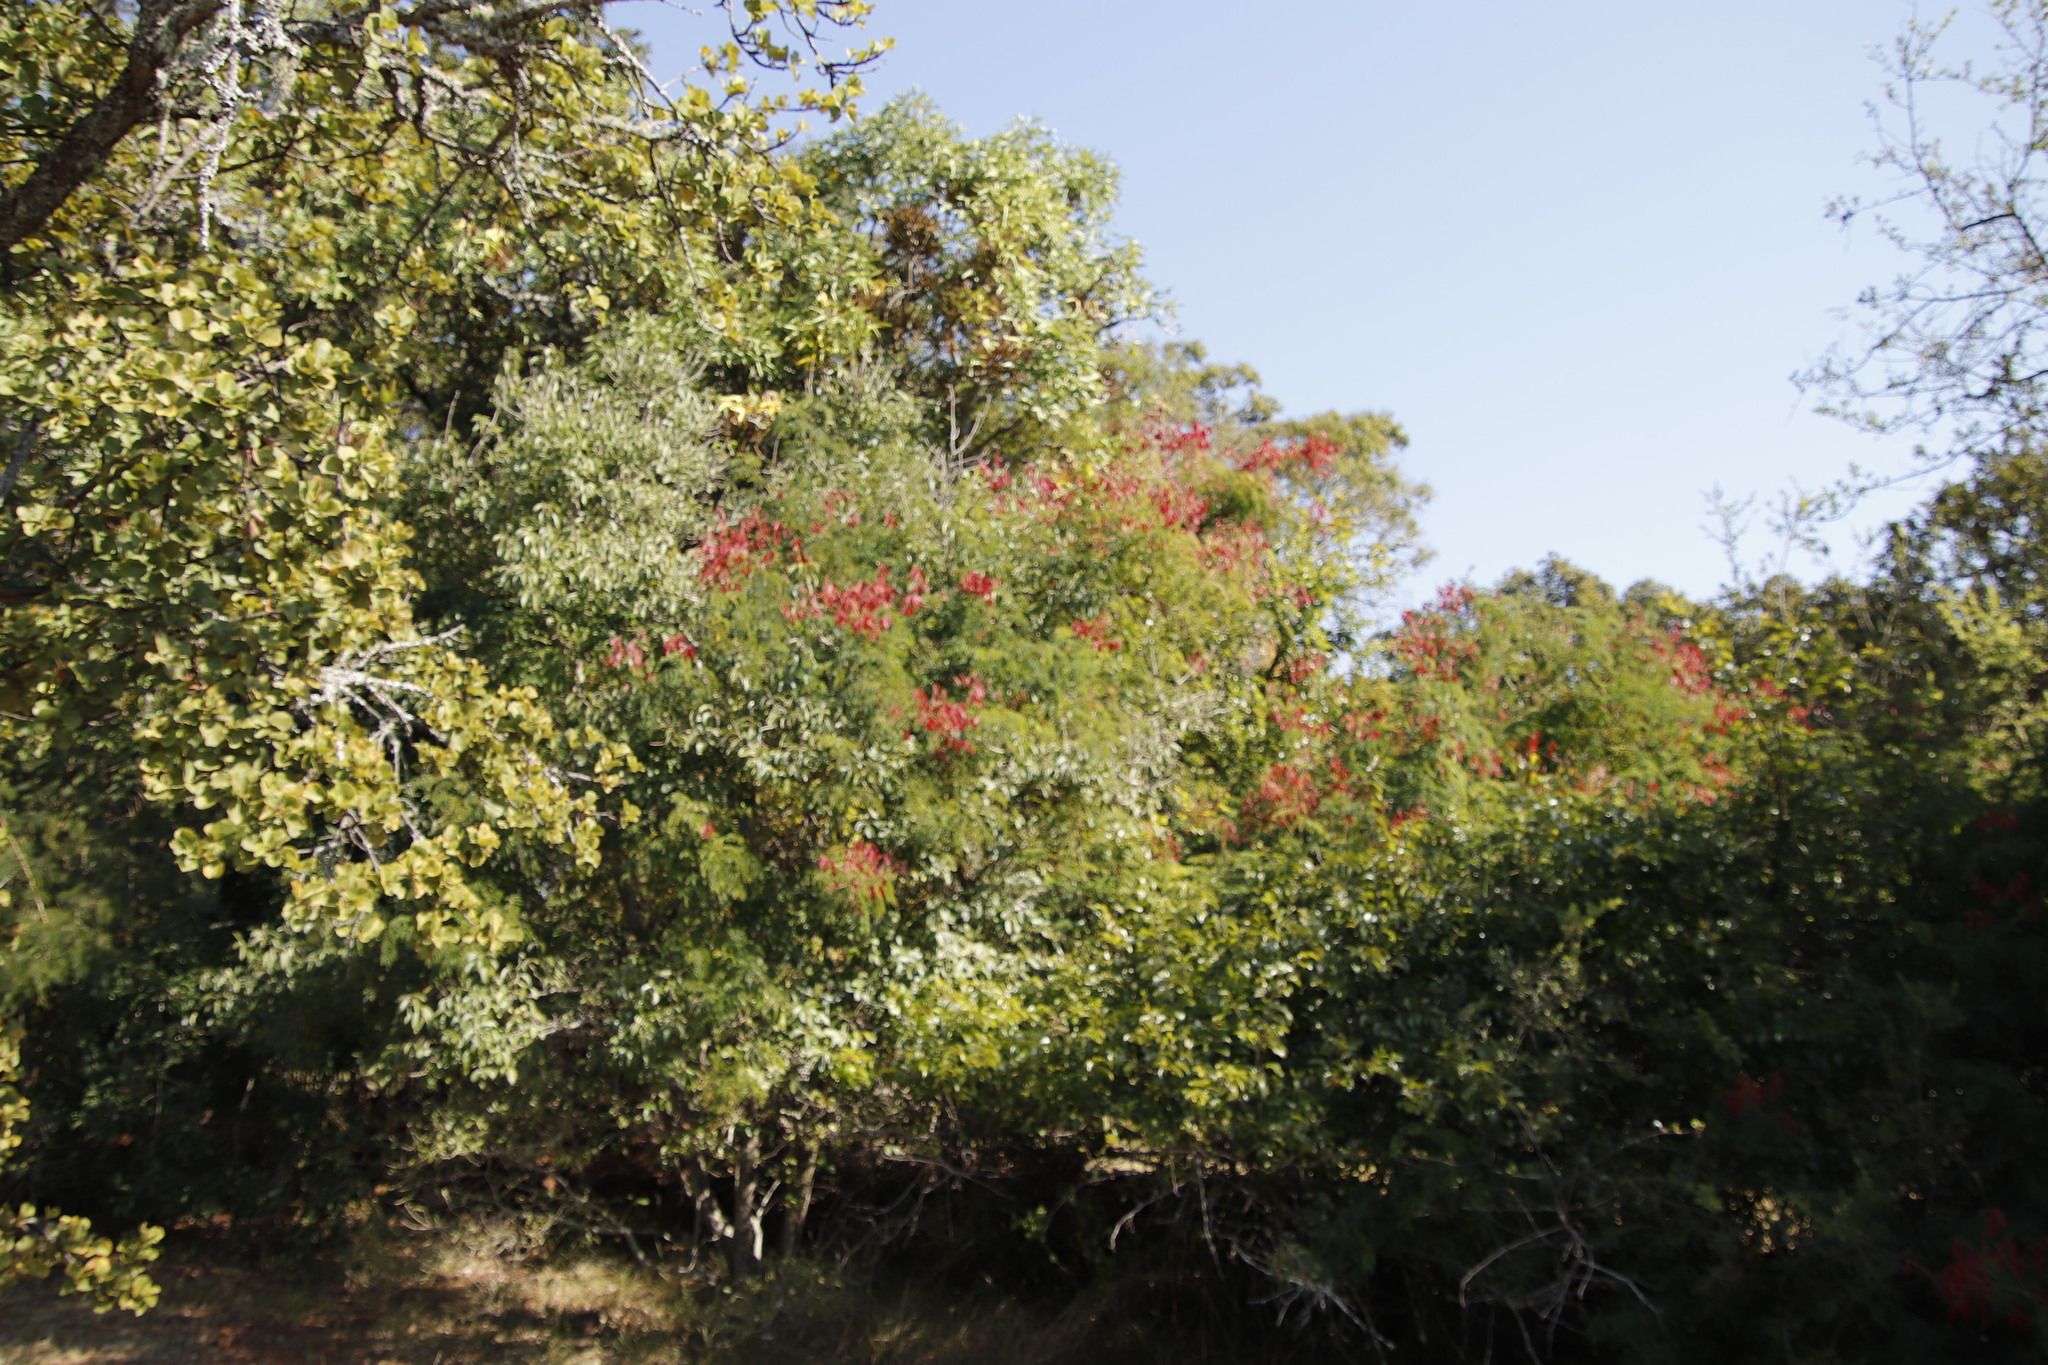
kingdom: Plantae
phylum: Tracheophyta
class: Magnoliopsida
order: Fabales
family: Fabaceae
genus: Senegalia
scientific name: Senegalia ataxacantha
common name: Flame acacia
